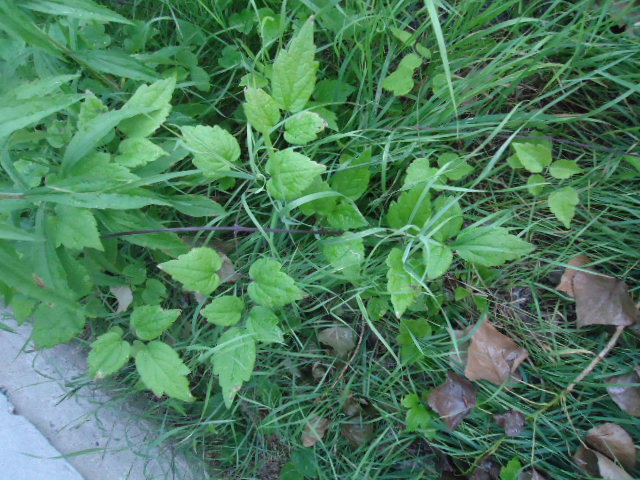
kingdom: Plantae
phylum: Tracheophyta
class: Magnoliopsida
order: Ranunculales
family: Ranunculaceae
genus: Clematis
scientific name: Clematis vitalba
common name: Evergreen clematis
